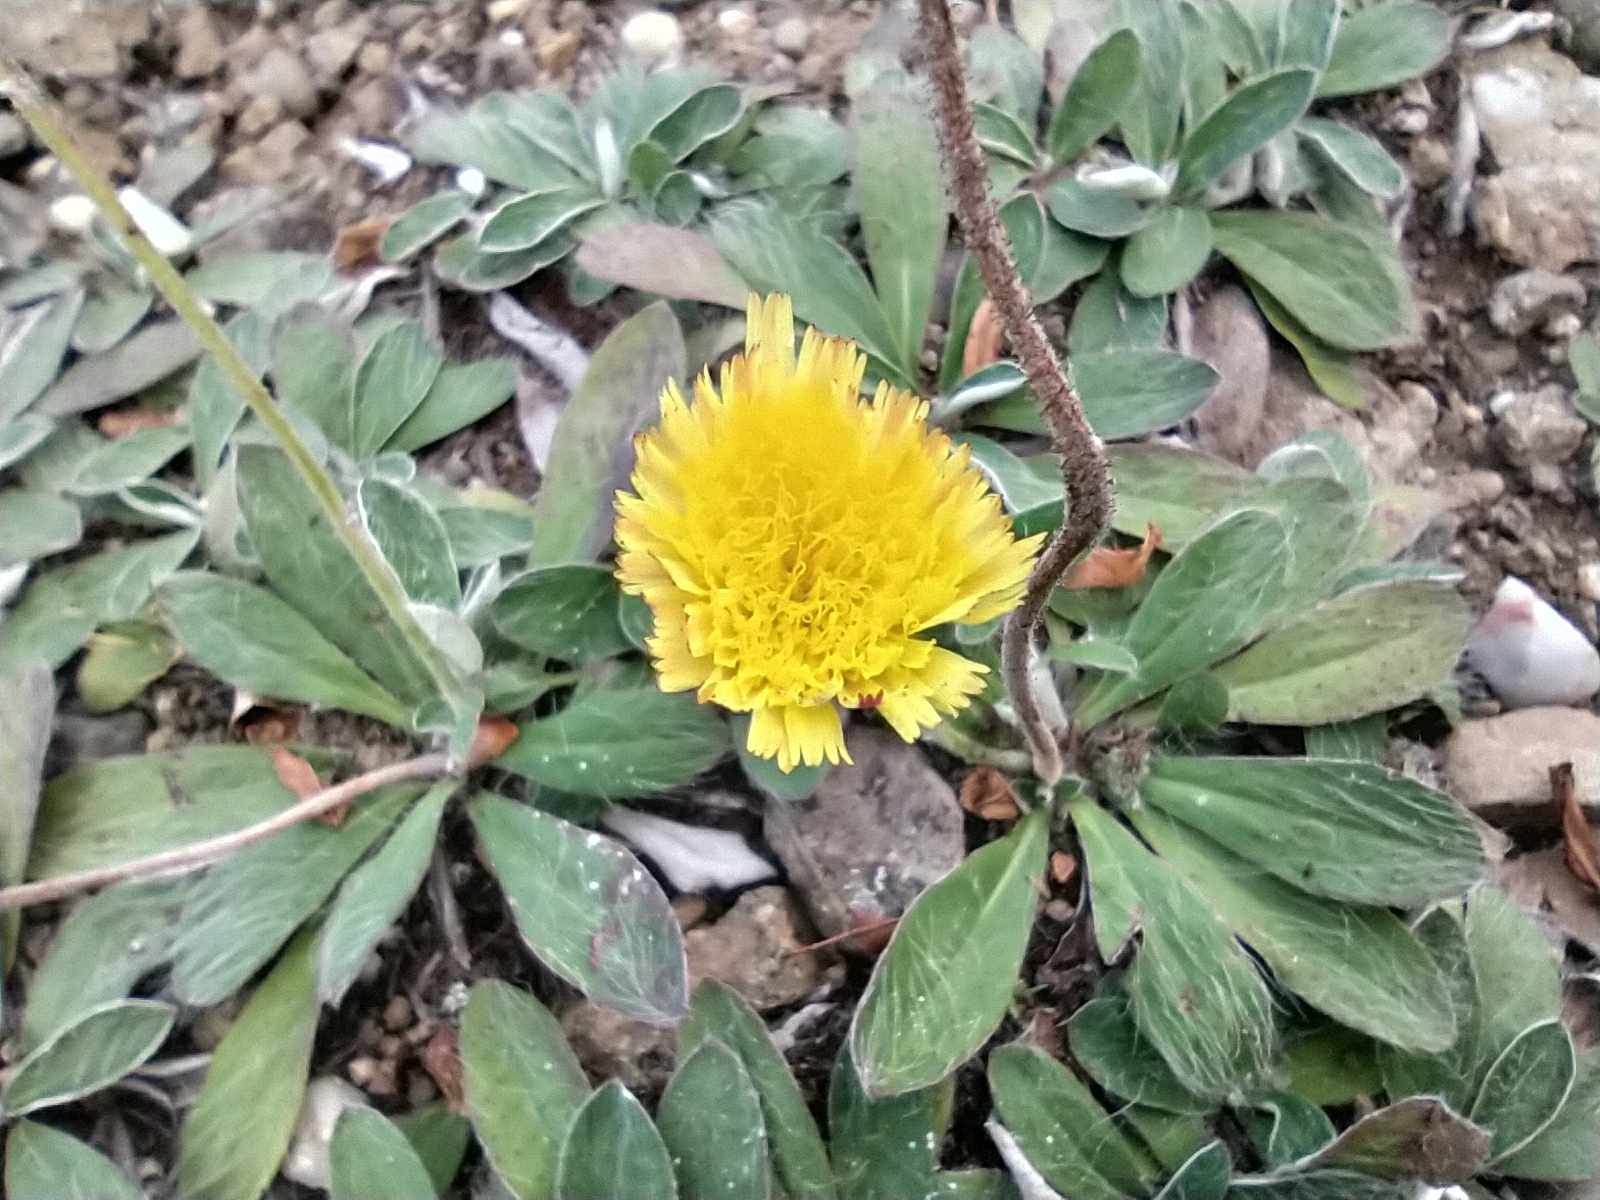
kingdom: Plantae
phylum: Tracheophyta
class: Magnoliopsida
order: Asterales
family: Asteraceae
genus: Pilosella
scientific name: Pilosella officinarum
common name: Mouse-ear hawkweed
